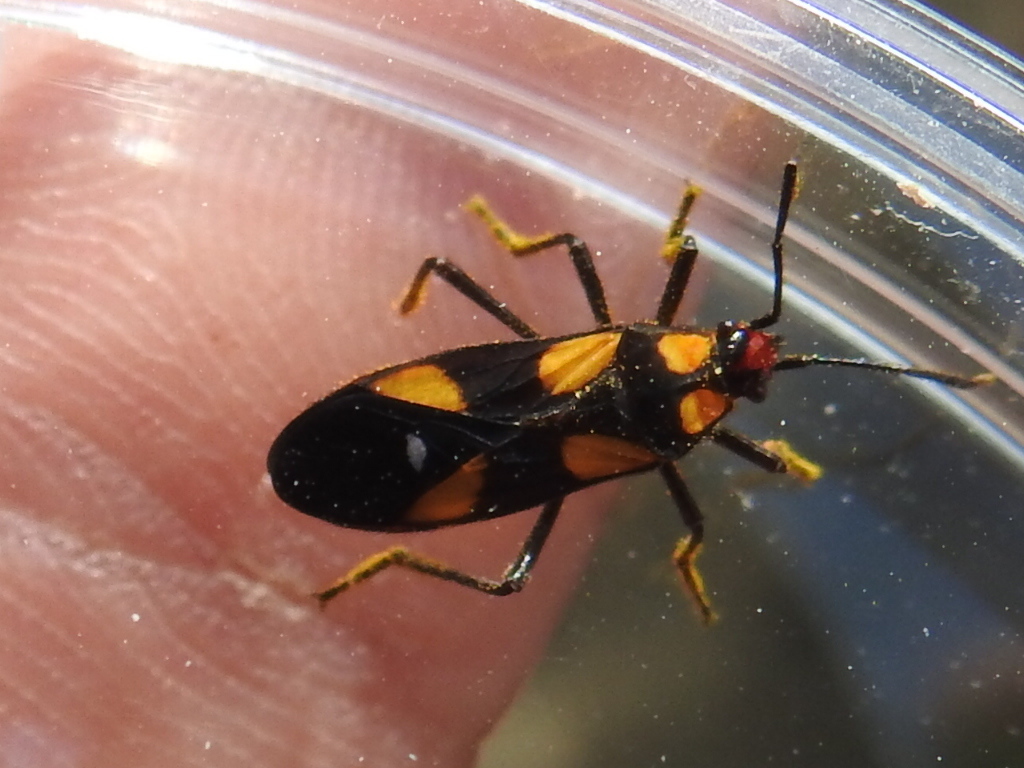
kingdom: Animalia
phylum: Arthropoda
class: Insecta
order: Hemiptera
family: Lygaeidae
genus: Oncopeltus
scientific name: Oncopeltus sexmaculatus
